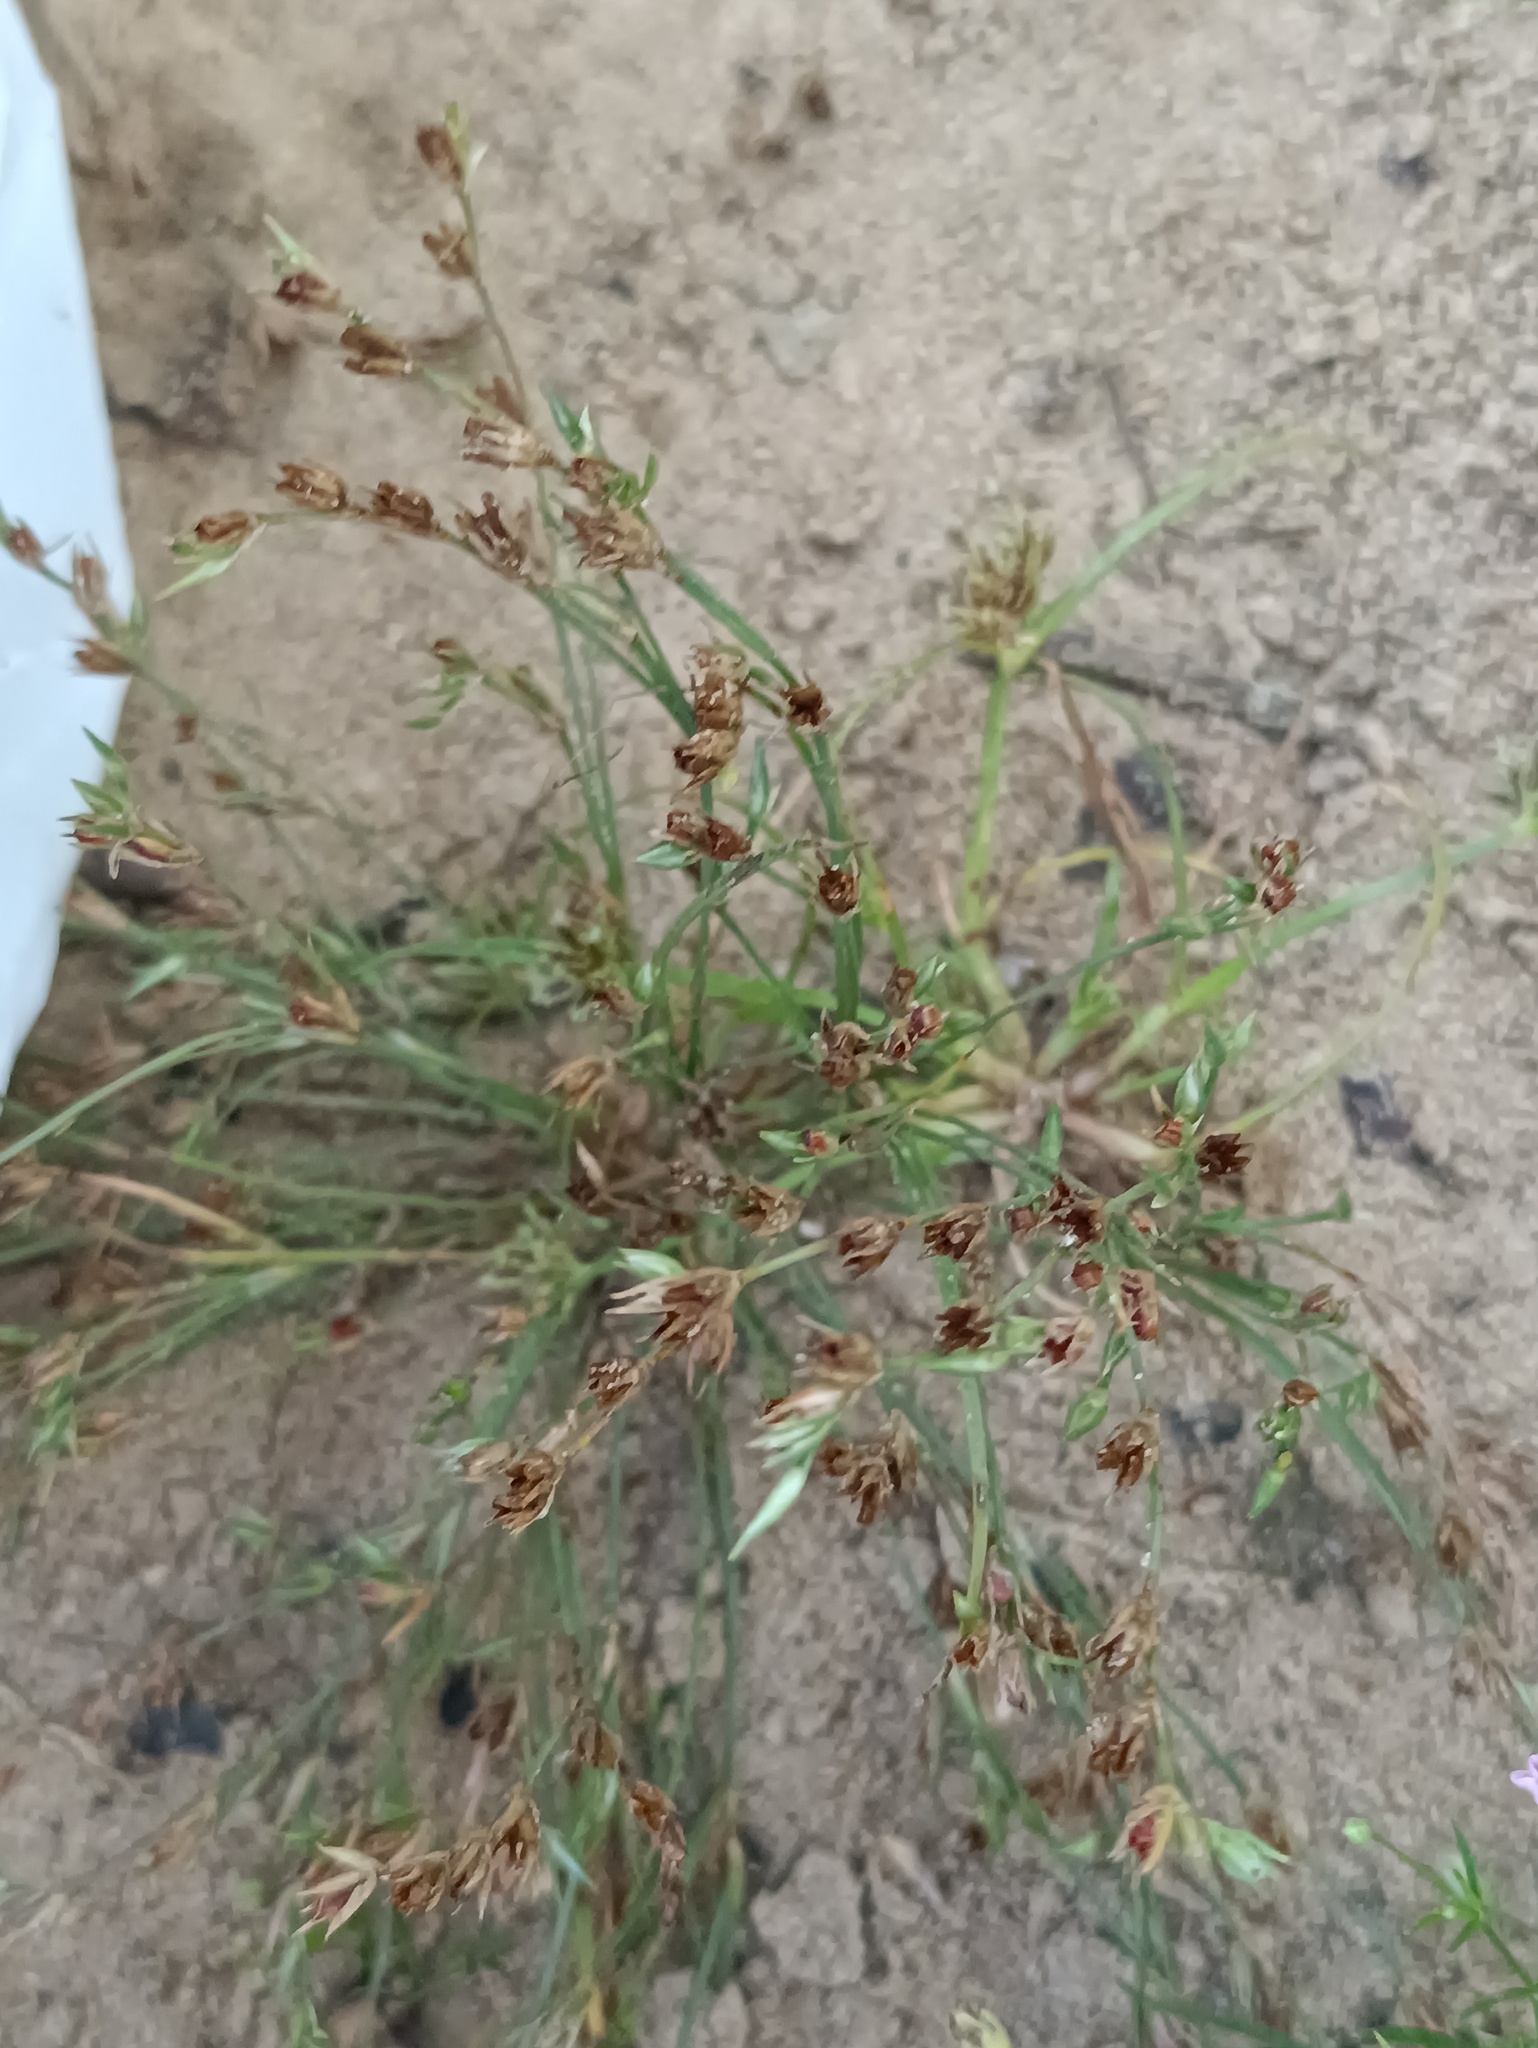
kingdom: Plantae
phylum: Tracheophyta
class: Liliopsida
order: Poales
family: Juncaceae
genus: Juncus
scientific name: Juncus bufonius
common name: Toad rush
